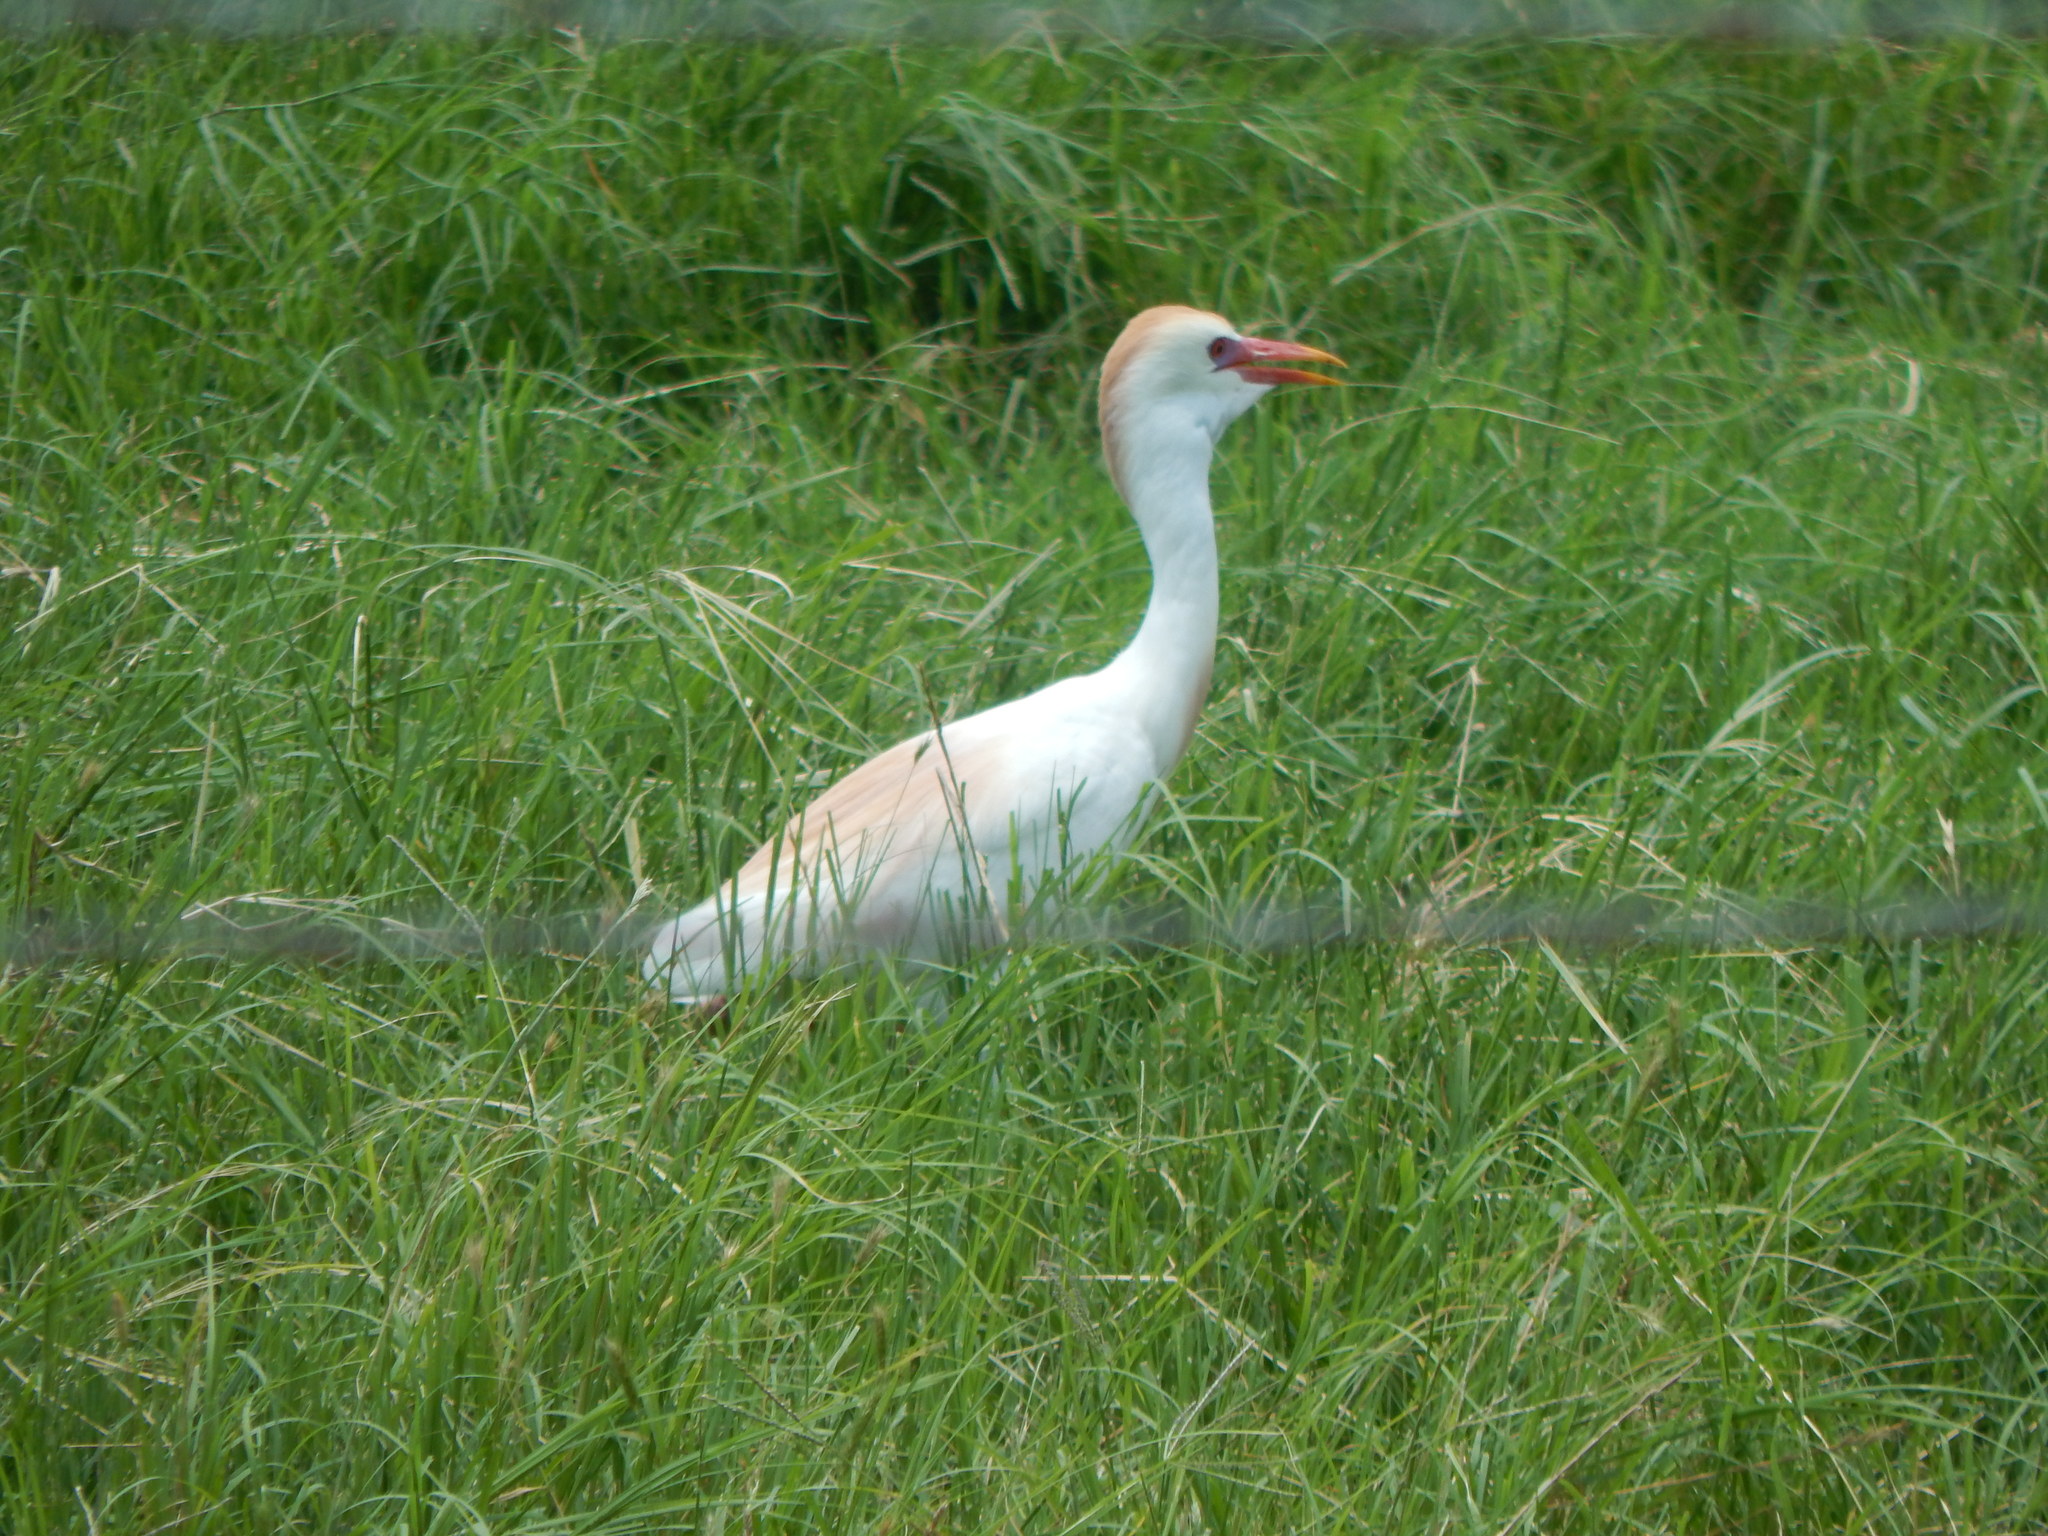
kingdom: Animalia
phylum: Chordata
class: Aves
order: Pelecaniformes
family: Ardeidae
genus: Bubulcus
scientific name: Bubulcus ibis
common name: Cattle egret
